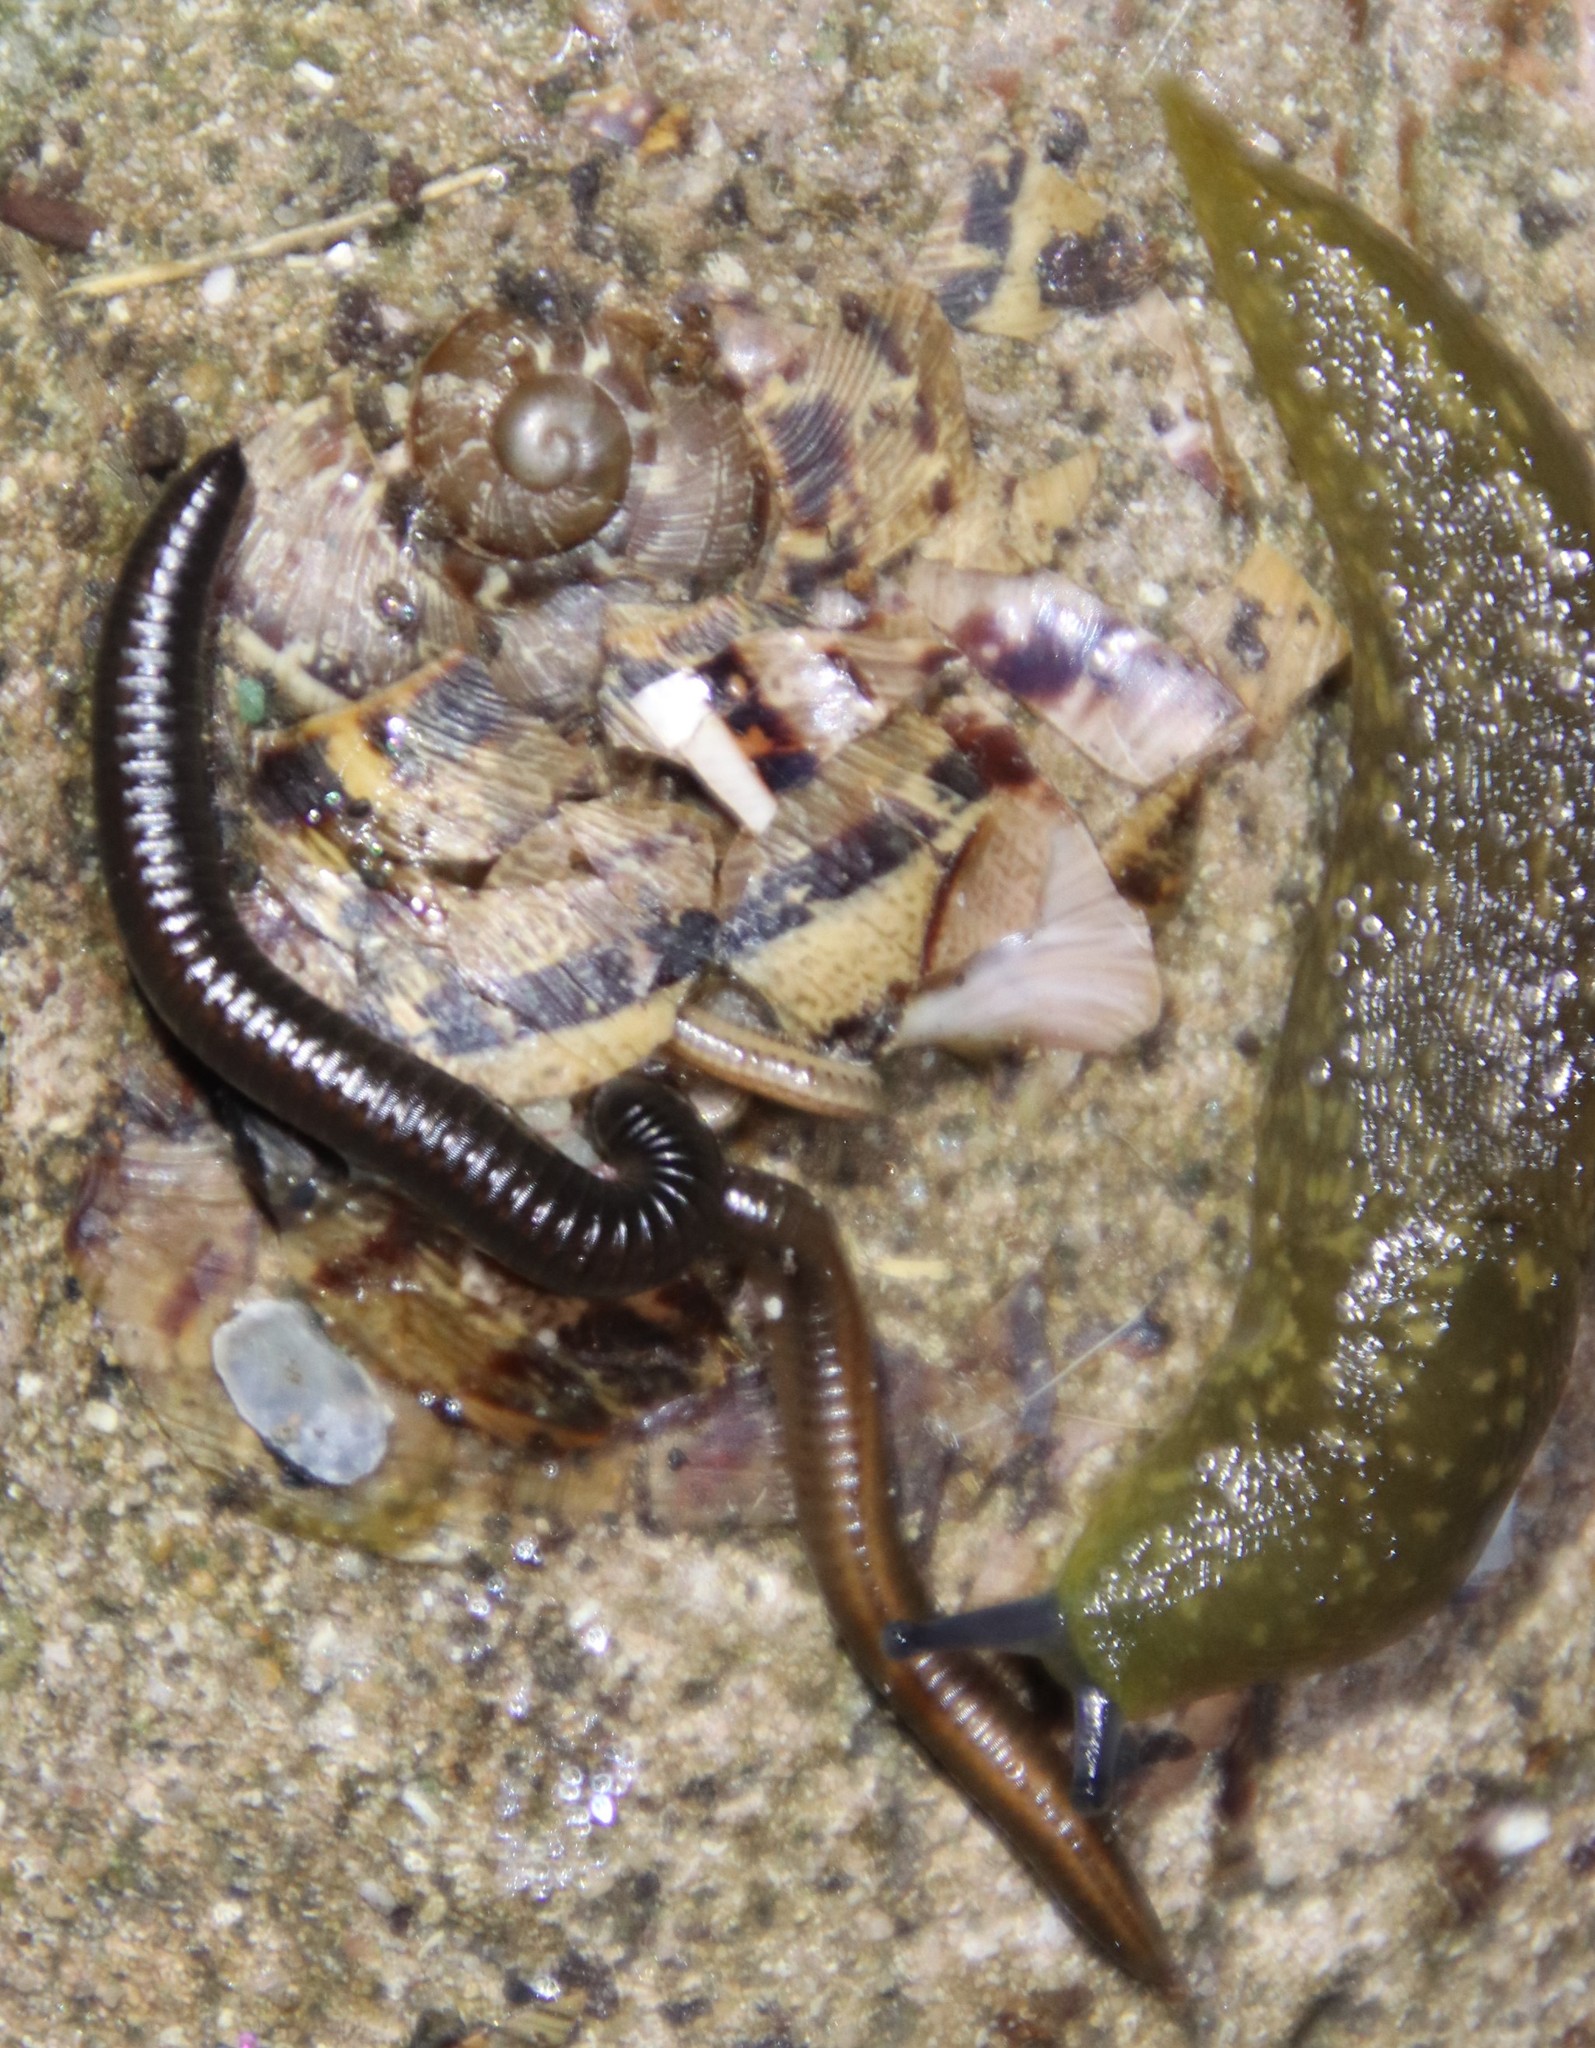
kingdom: Animalia
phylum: Mollusca
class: Gastropoda
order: Stylommatophora
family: Limacidae
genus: Limacus
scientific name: Limacus flavus
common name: Yellow gardenslug
